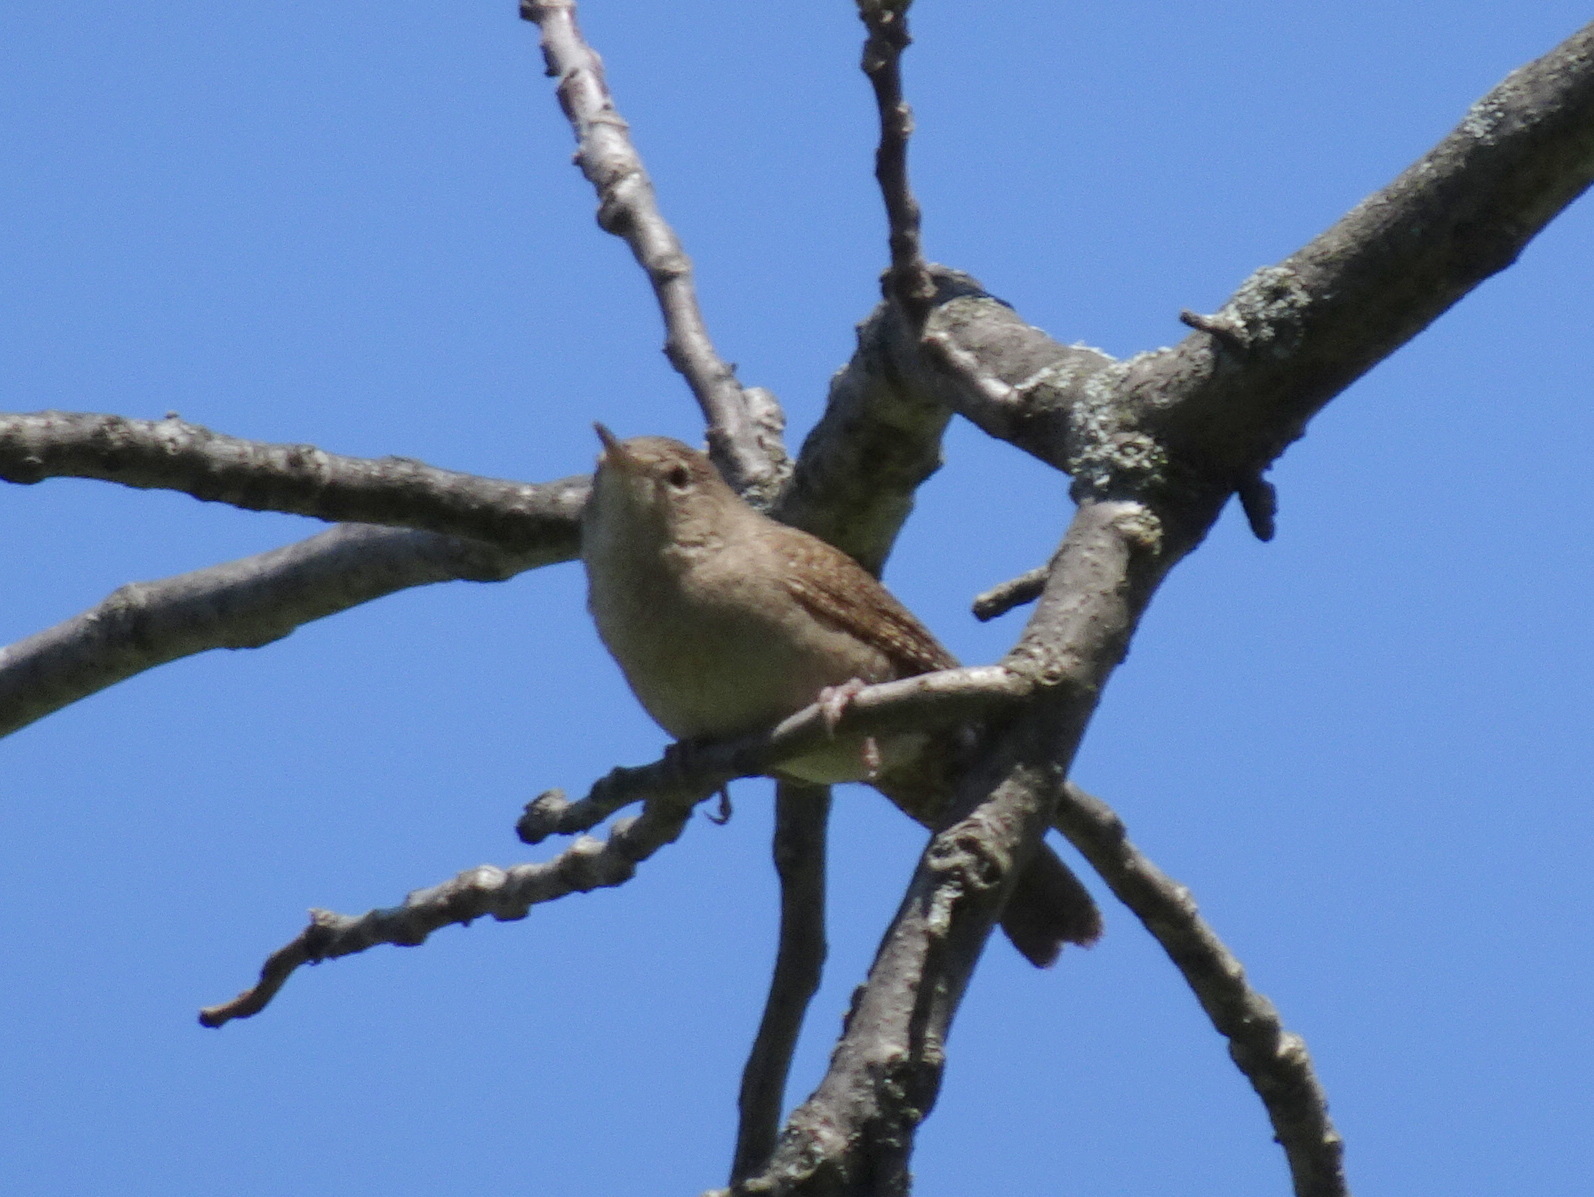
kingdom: Animalia
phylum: Chordata
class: Aves
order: Passeriformes
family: Troglodytidae
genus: Troglodytes
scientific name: Troglodytes aedon
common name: House wren
